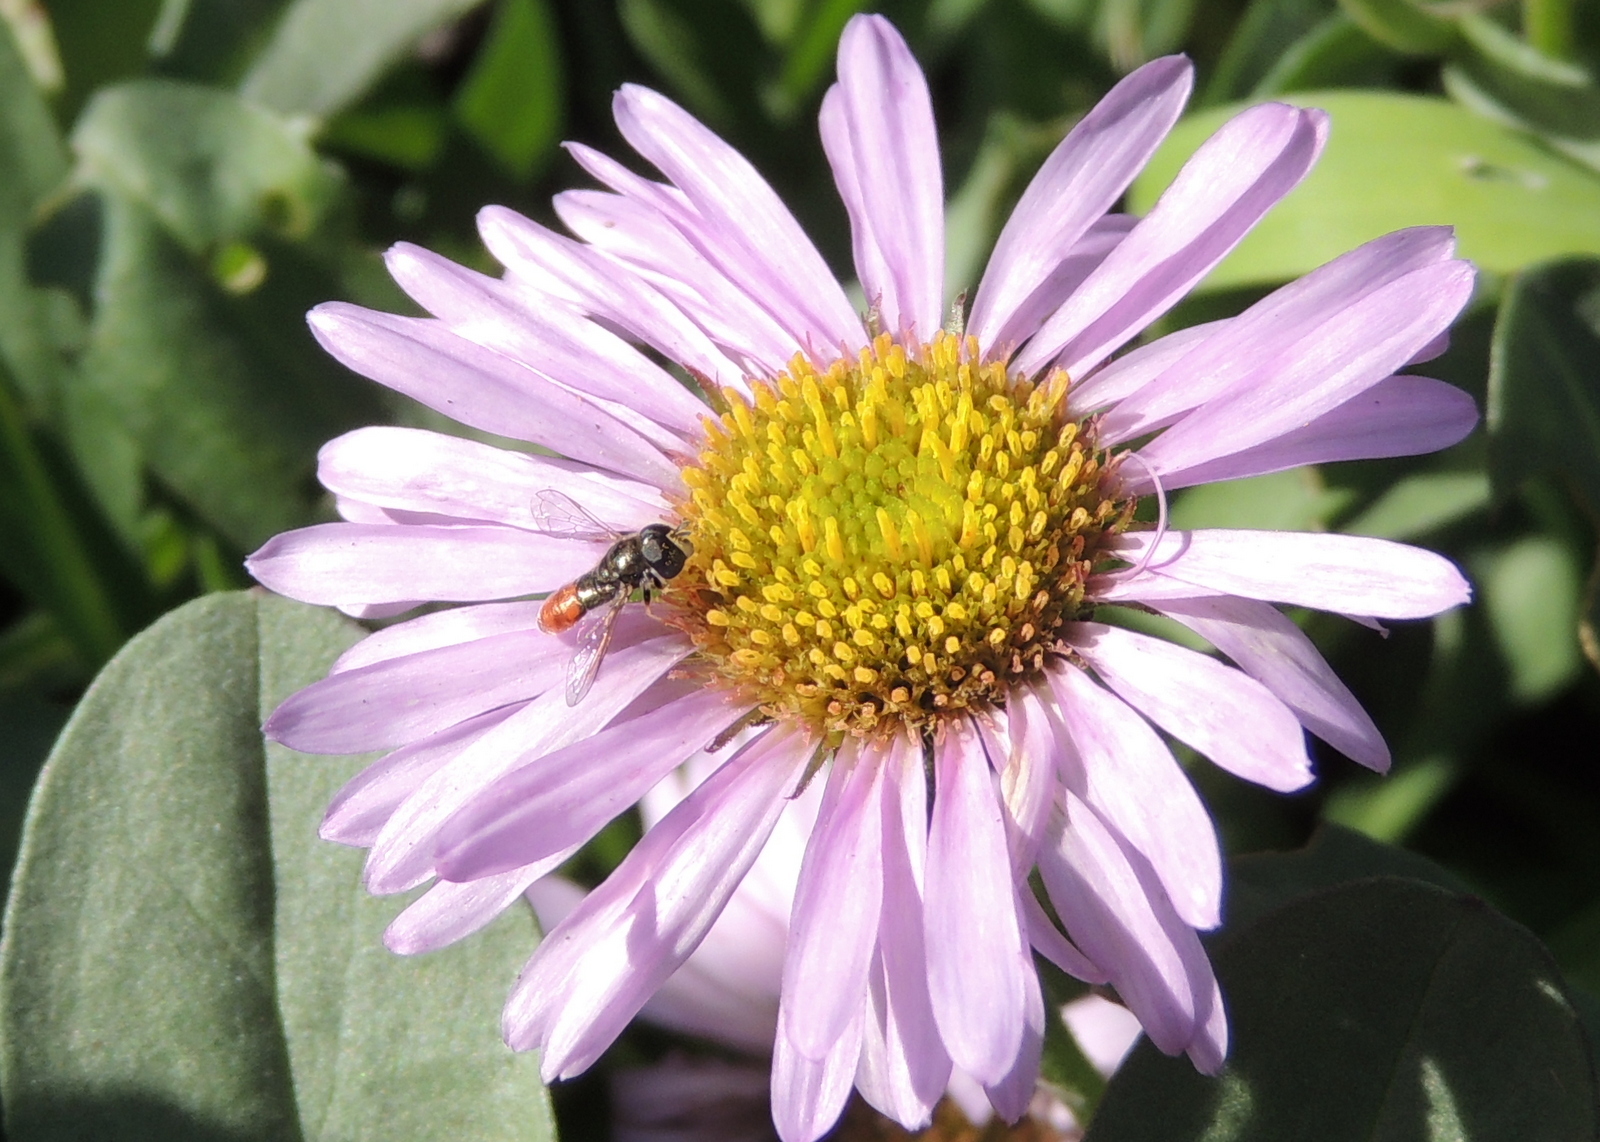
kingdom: Animalia
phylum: Arthropoda
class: Insecta
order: Diptera
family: Syrphidae
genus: Paragus
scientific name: Paragus haemorrhous
